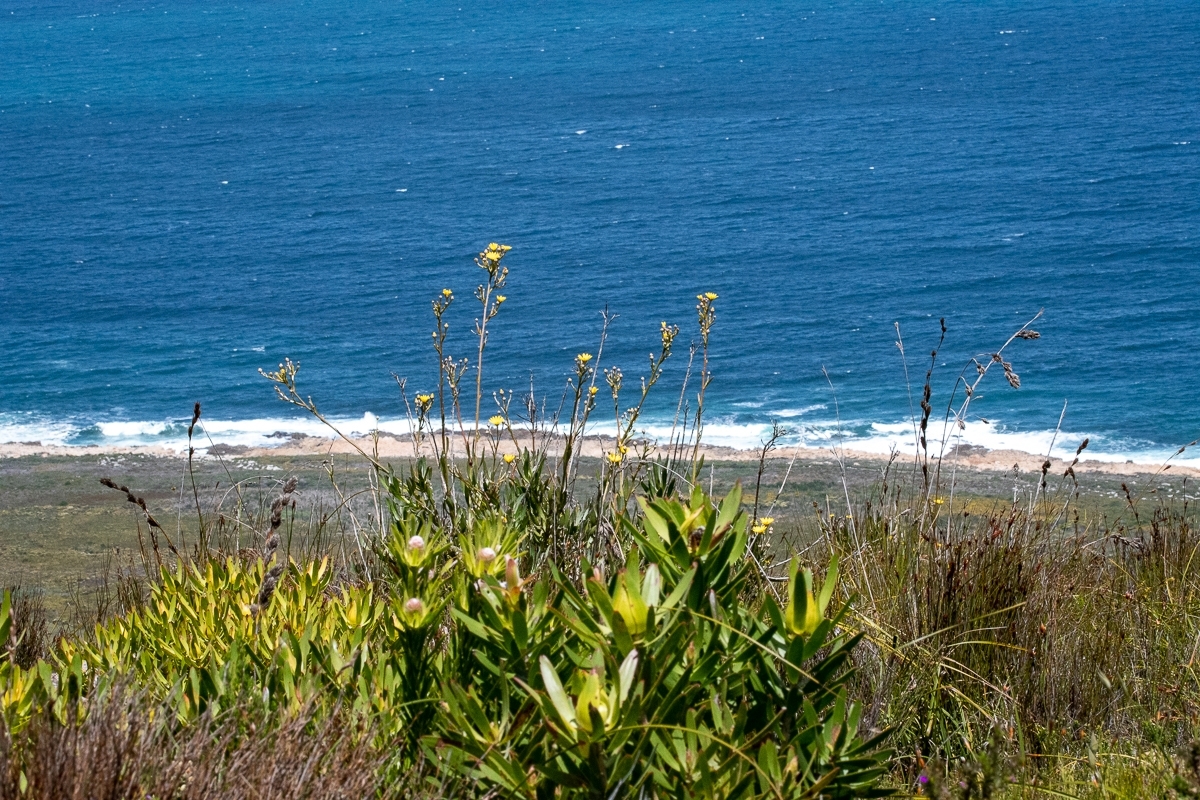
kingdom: Plantae
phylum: Tracheophyta
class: Magnoliopsida
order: Proteales
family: Proteaceae
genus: Leucadendron
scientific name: Leucadendron laureolum
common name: Golden sunshinebush
